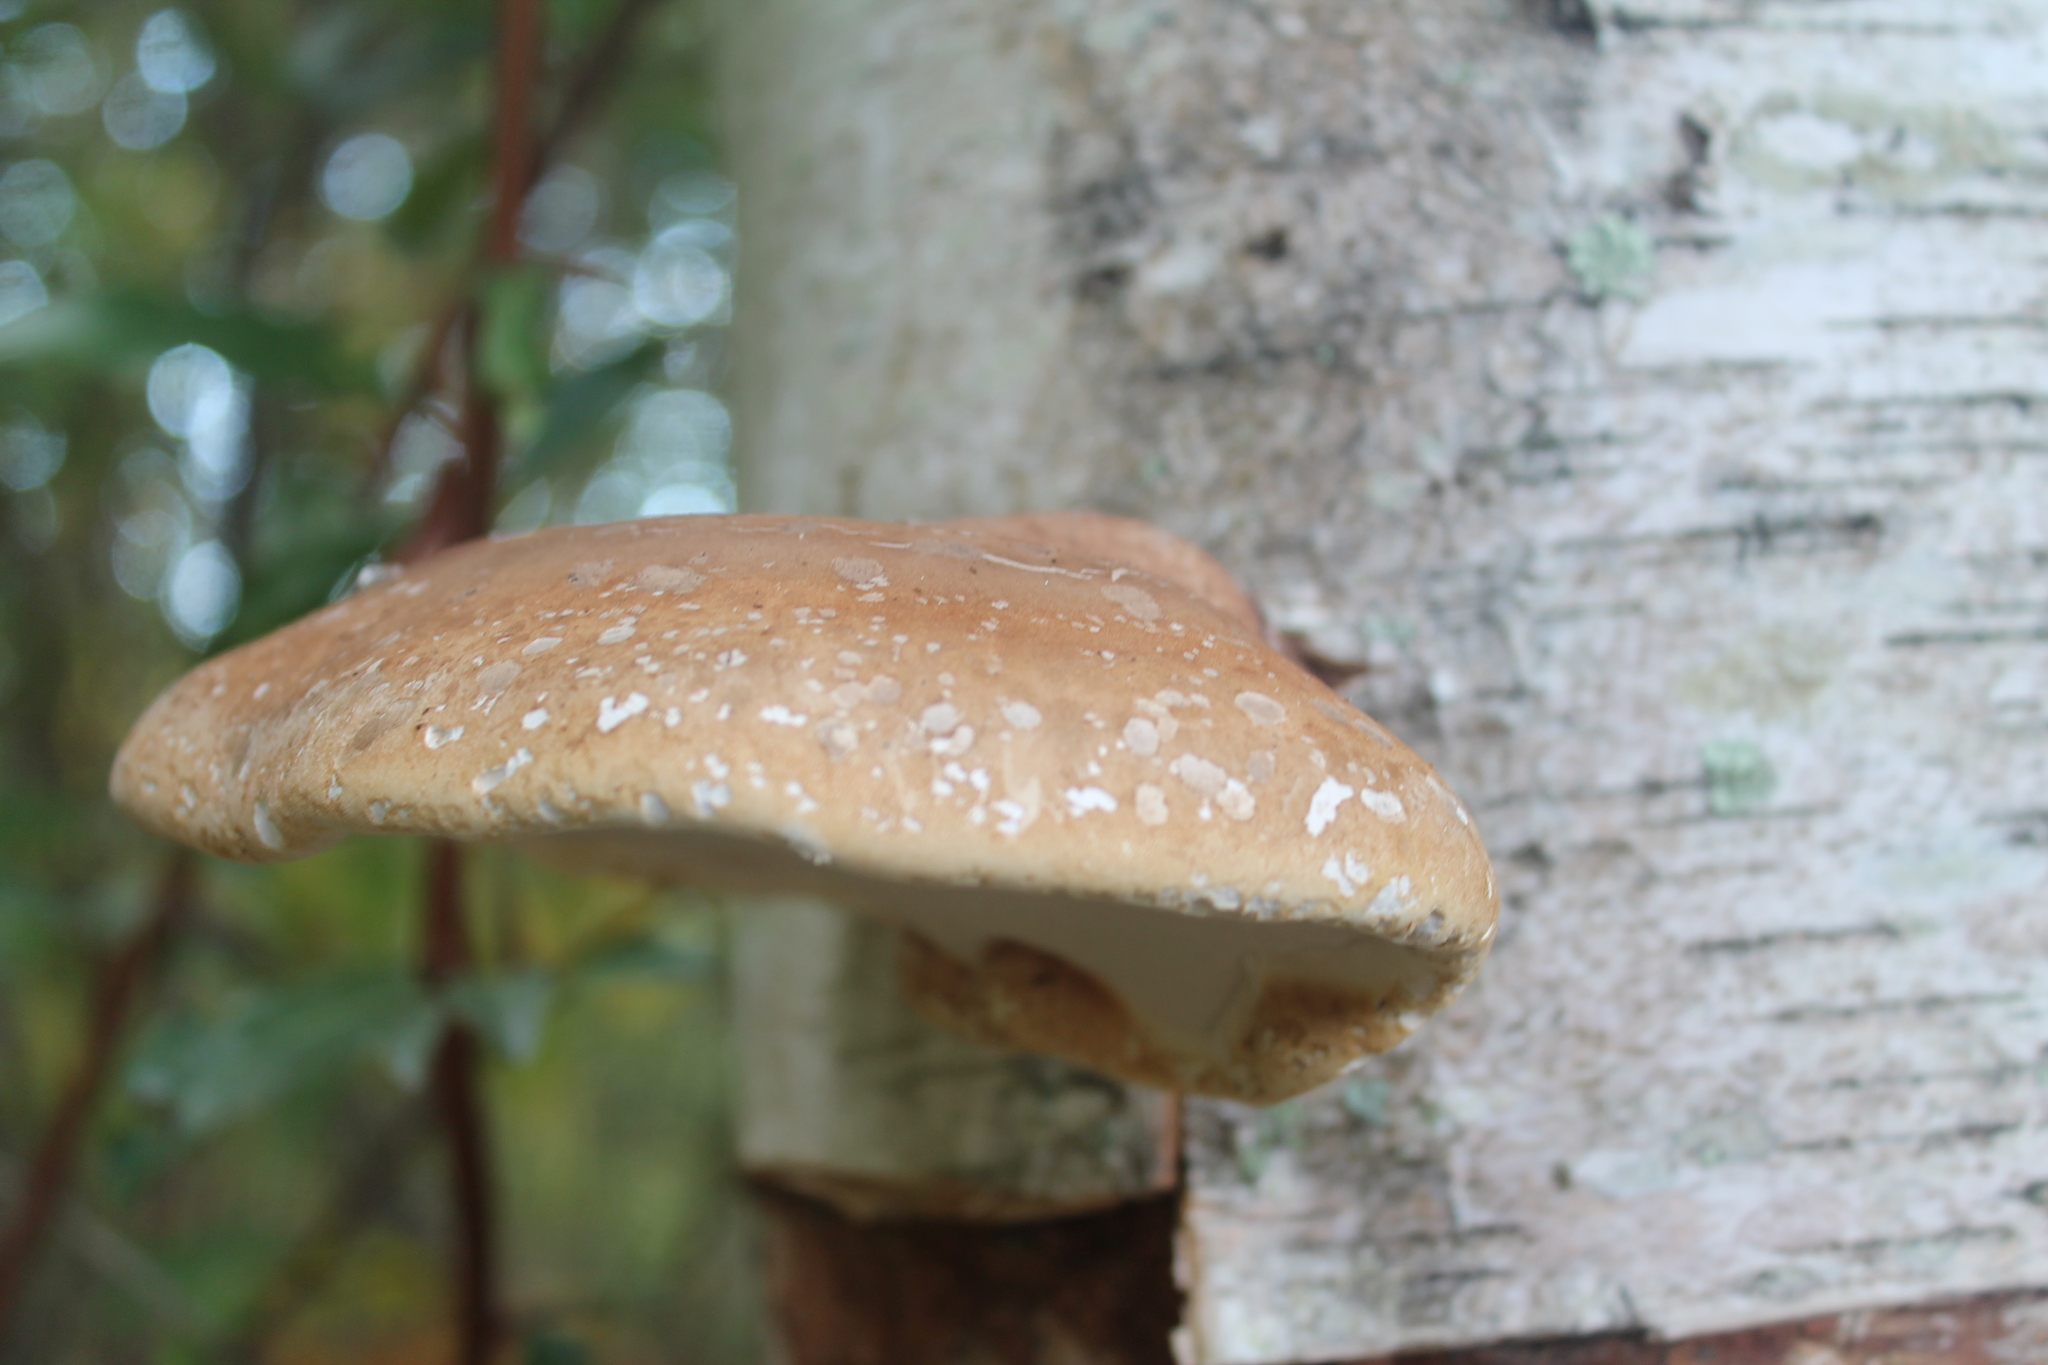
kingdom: Fungi
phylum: Basidiomycota
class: Agaricomycetes
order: Polyporales
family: Fomitopsidaceae
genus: Fomitopsis
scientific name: Fomitopsis betulina
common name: Birch polypore
